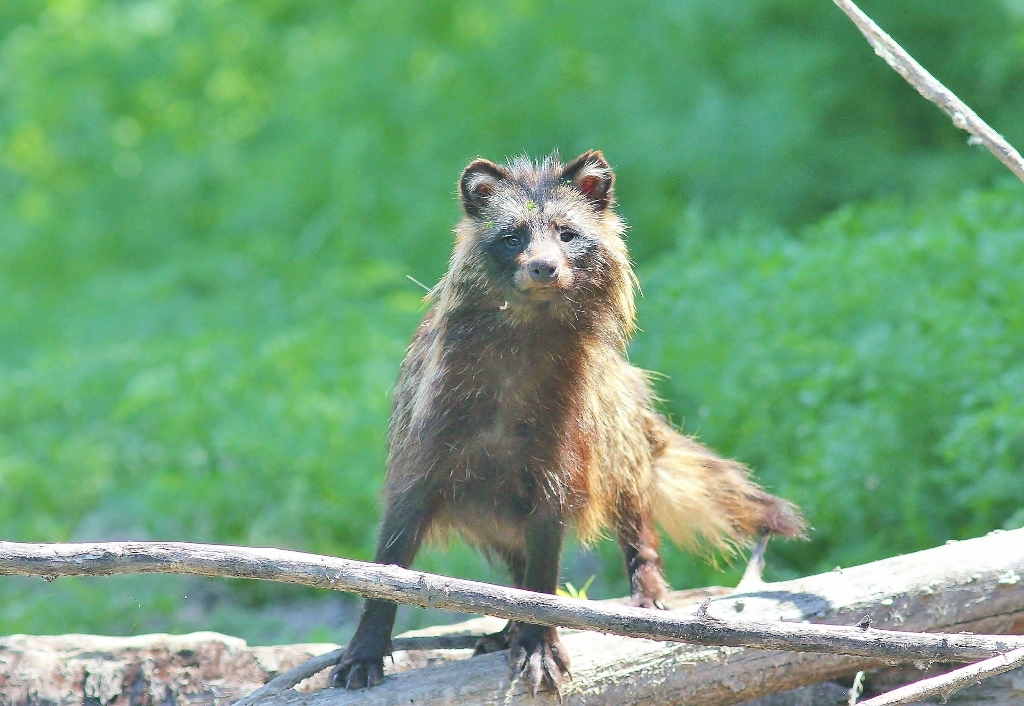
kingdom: Animalia
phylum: Chordata
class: Mammalia
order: Carnivora
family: Canidae
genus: Nyctereutes
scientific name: Nyctereutes procyonoides
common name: Raccoon dog
